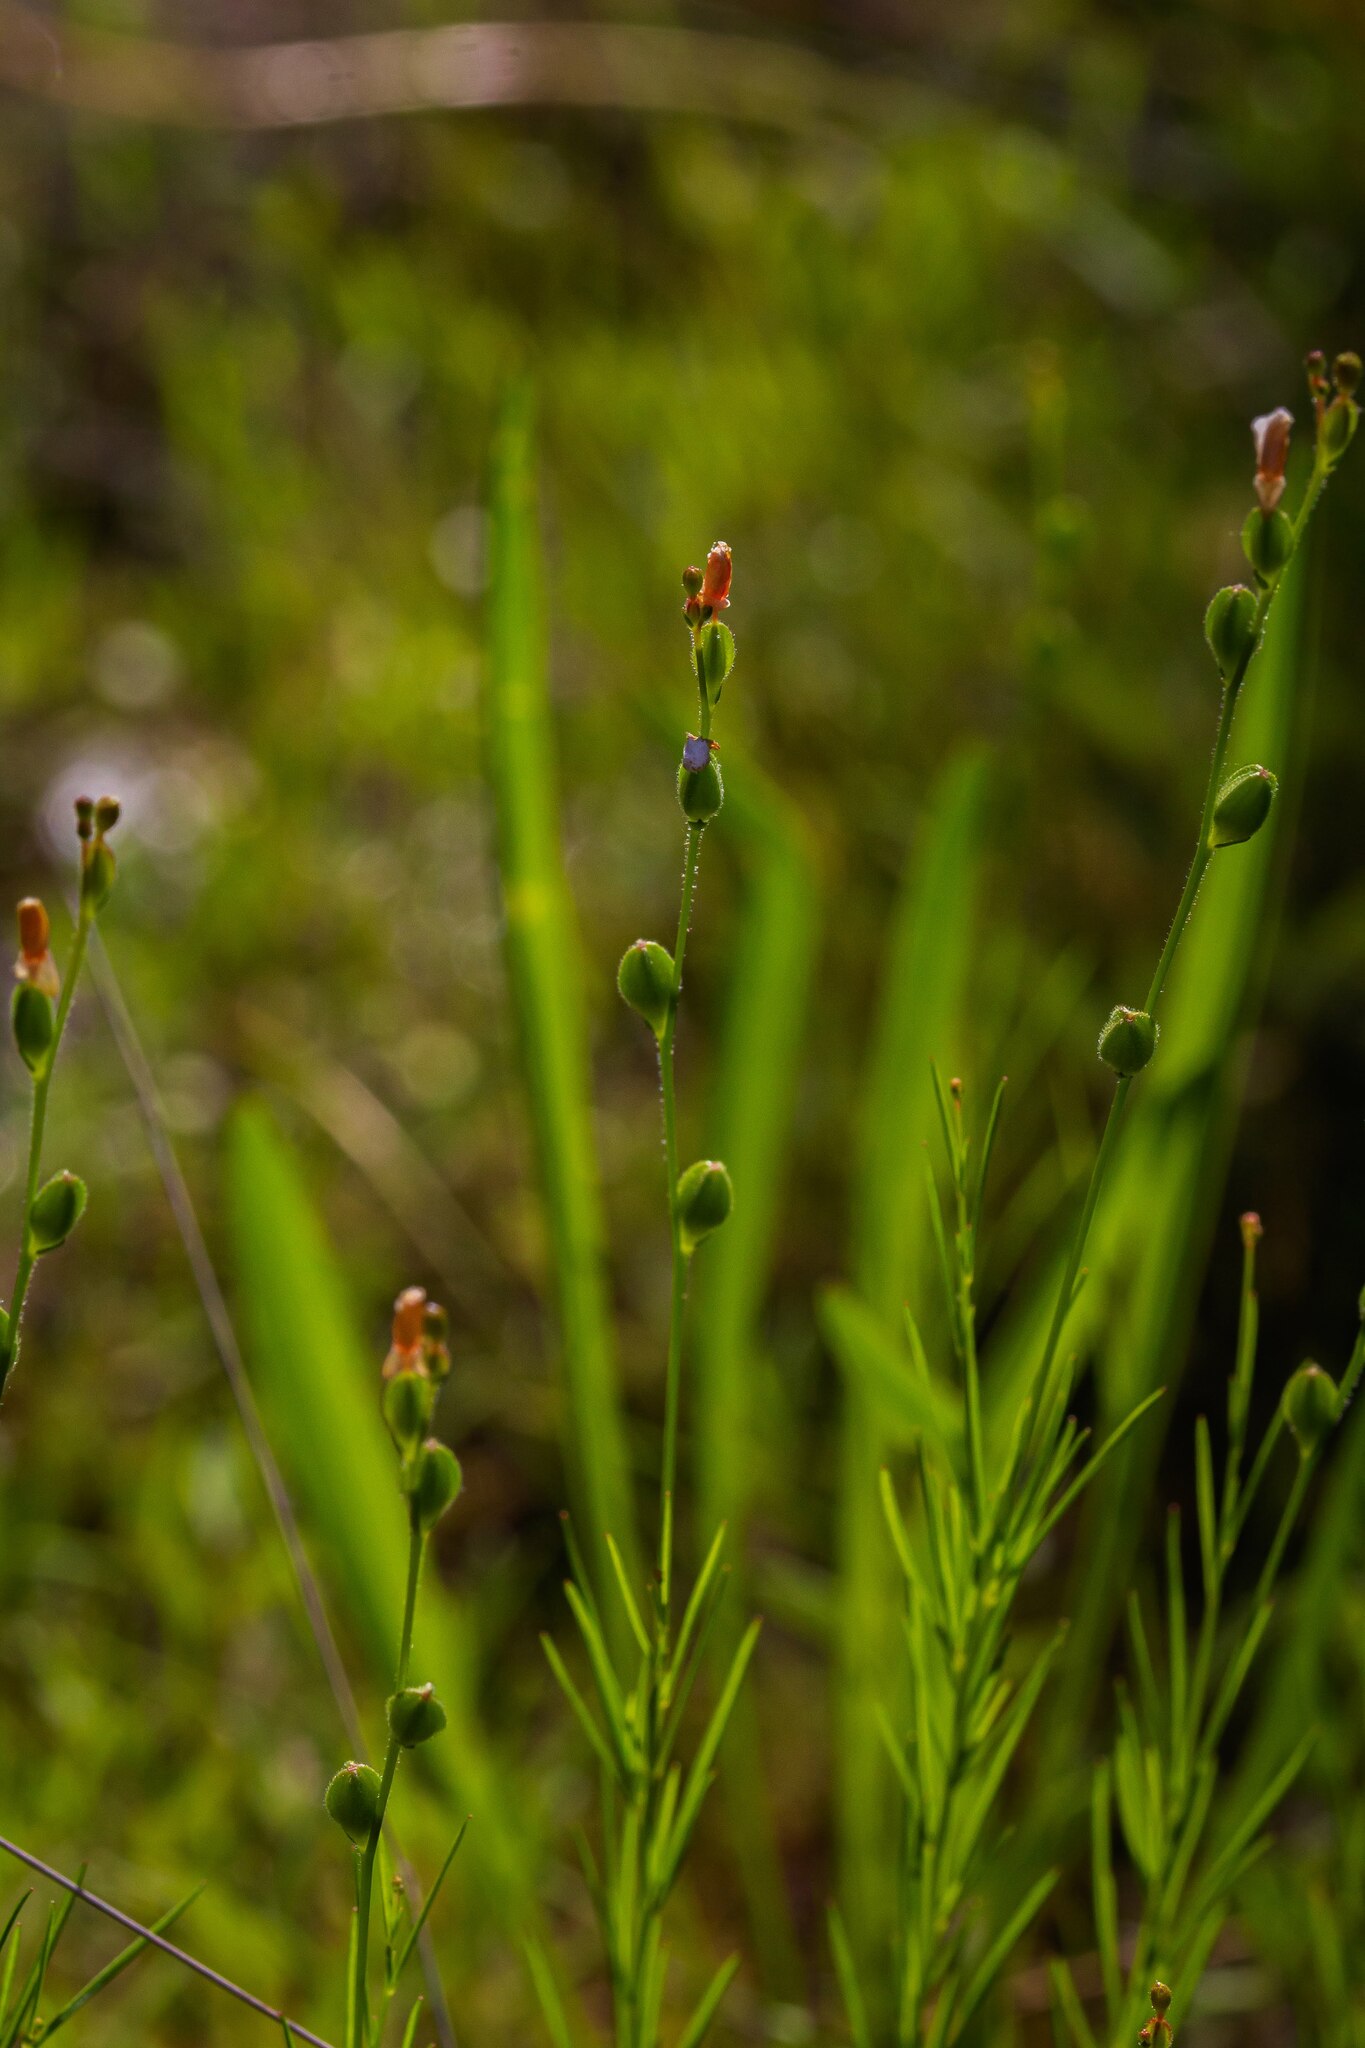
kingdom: Plantae
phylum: Tracheophyta
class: Magnoliopsida
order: Myrtales
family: Onagraceae
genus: Oenothera
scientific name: Oenothera linifolia
